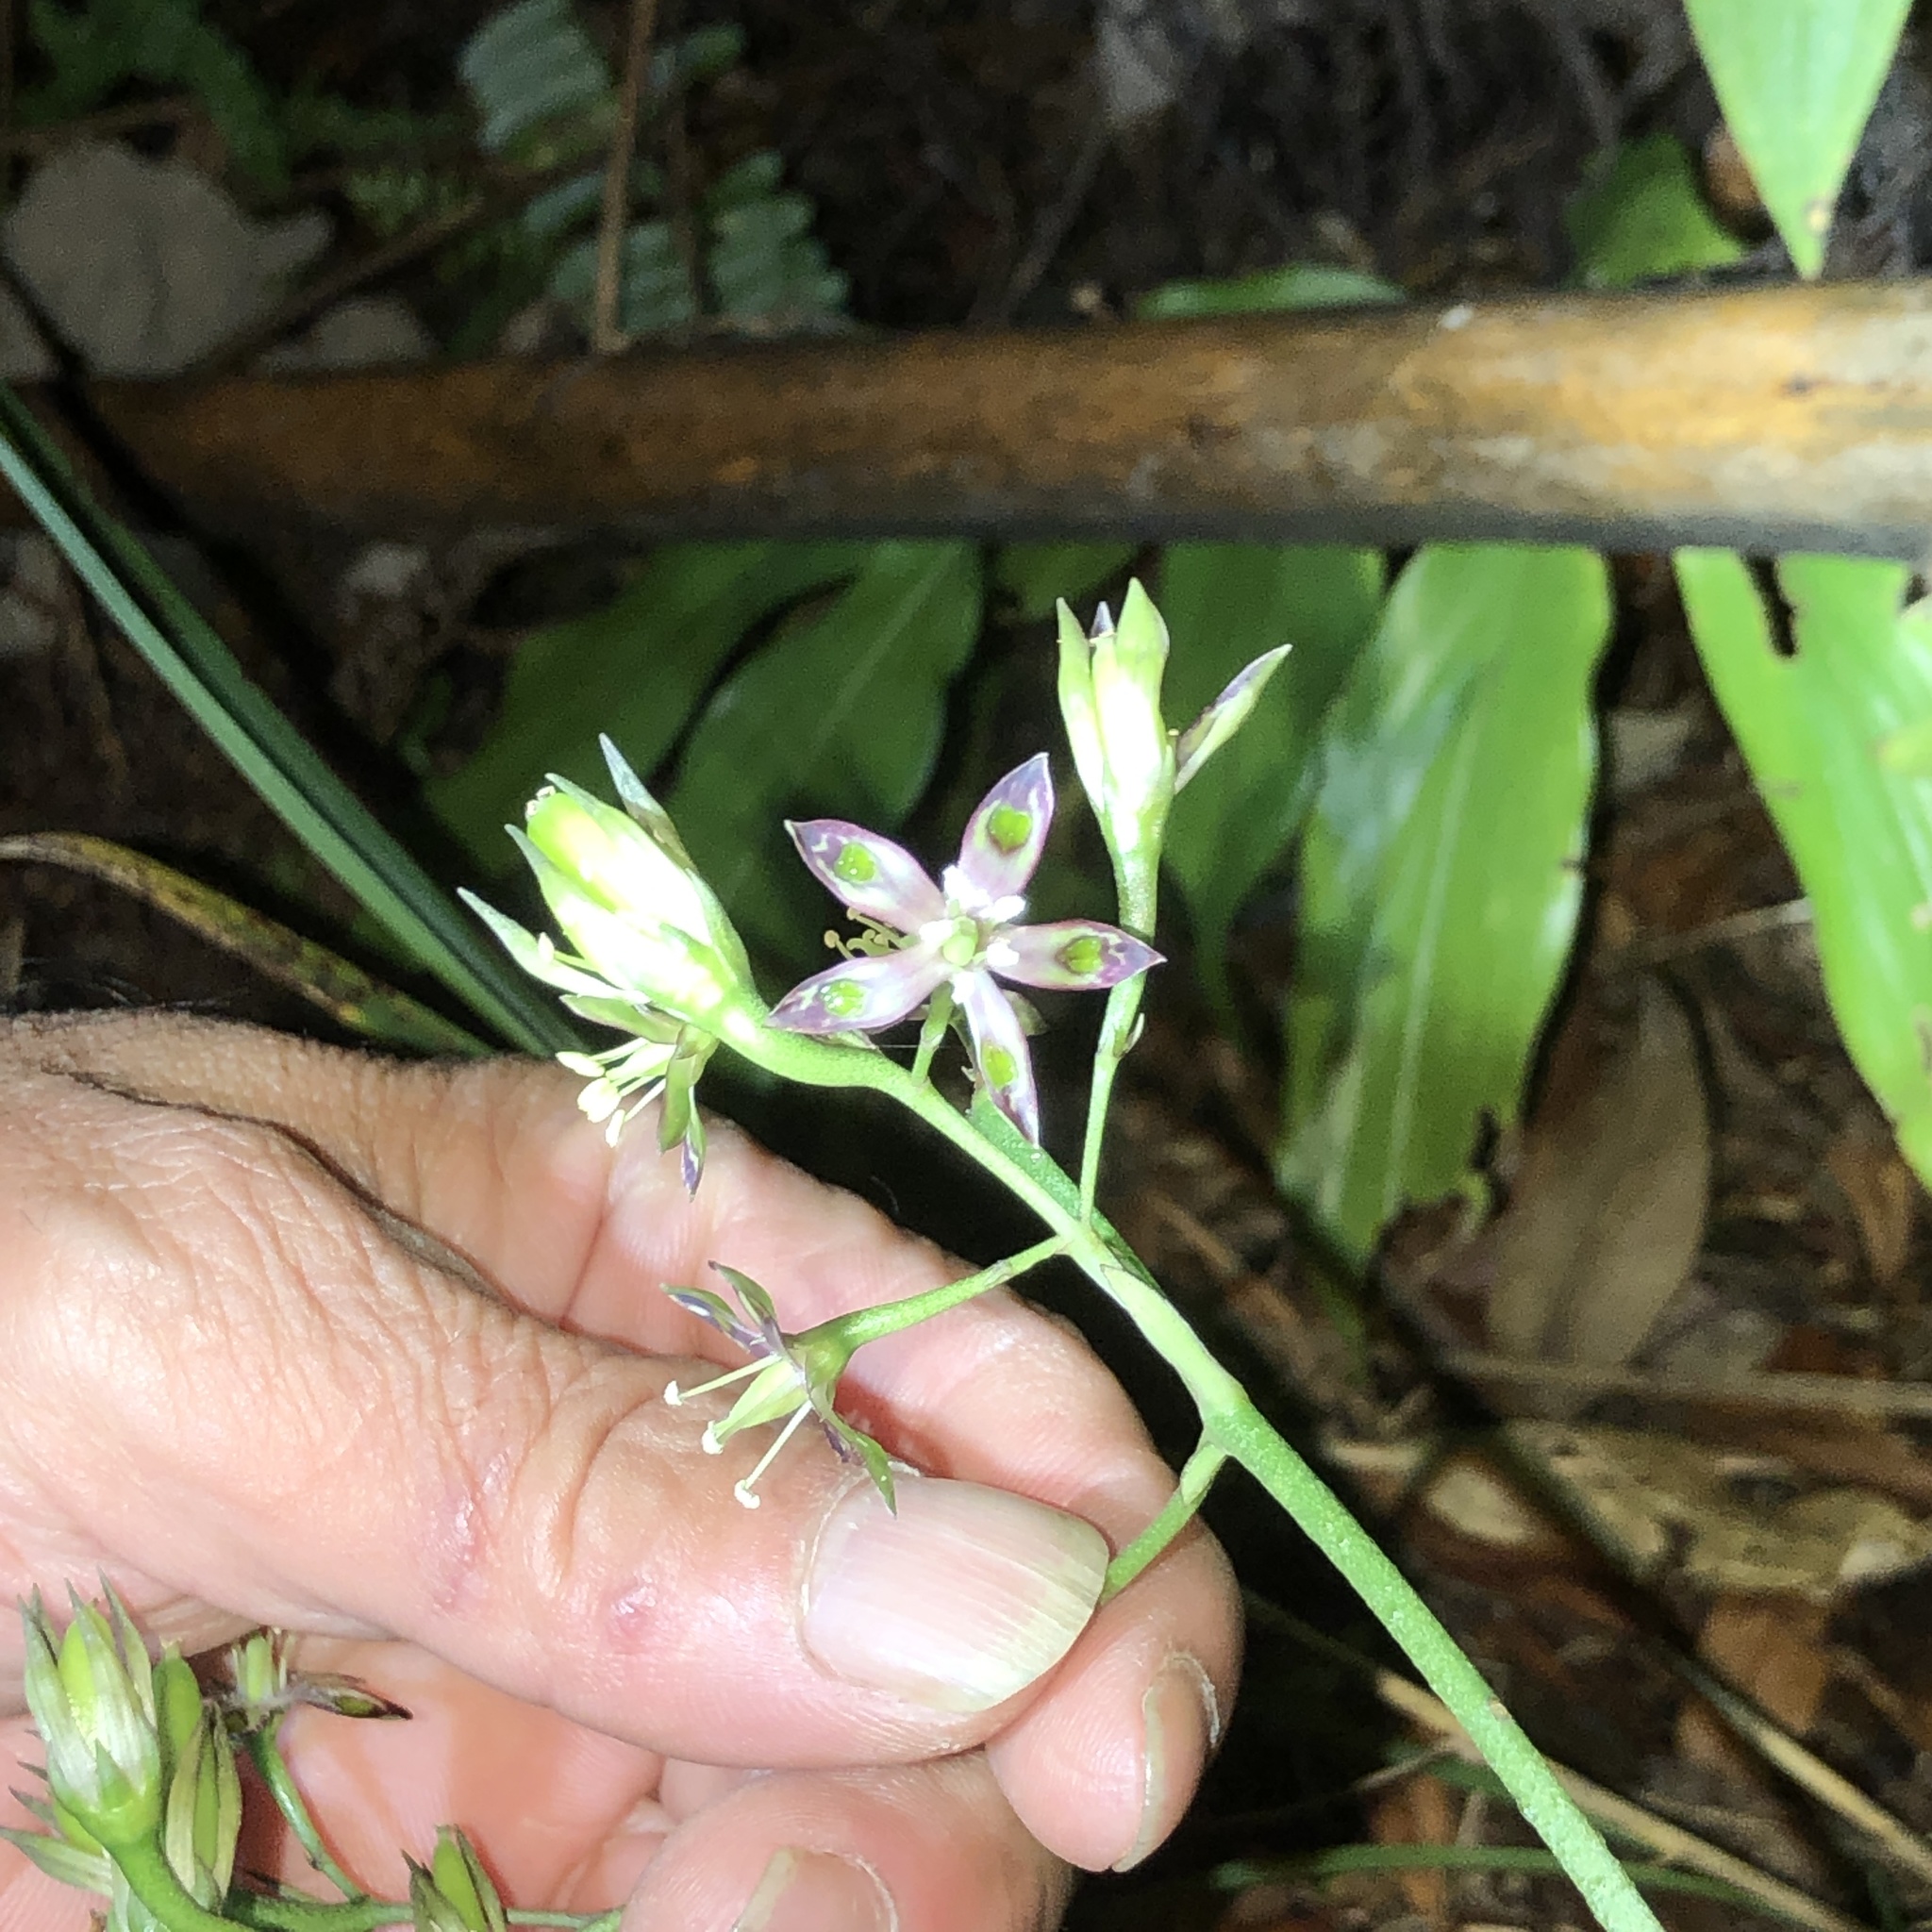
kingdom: Plantae
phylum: Tracheophyta
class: Magnoliopsida
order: Gentianales
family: Gentianaceae
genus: Swertia
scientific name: Swertia tashiroi
